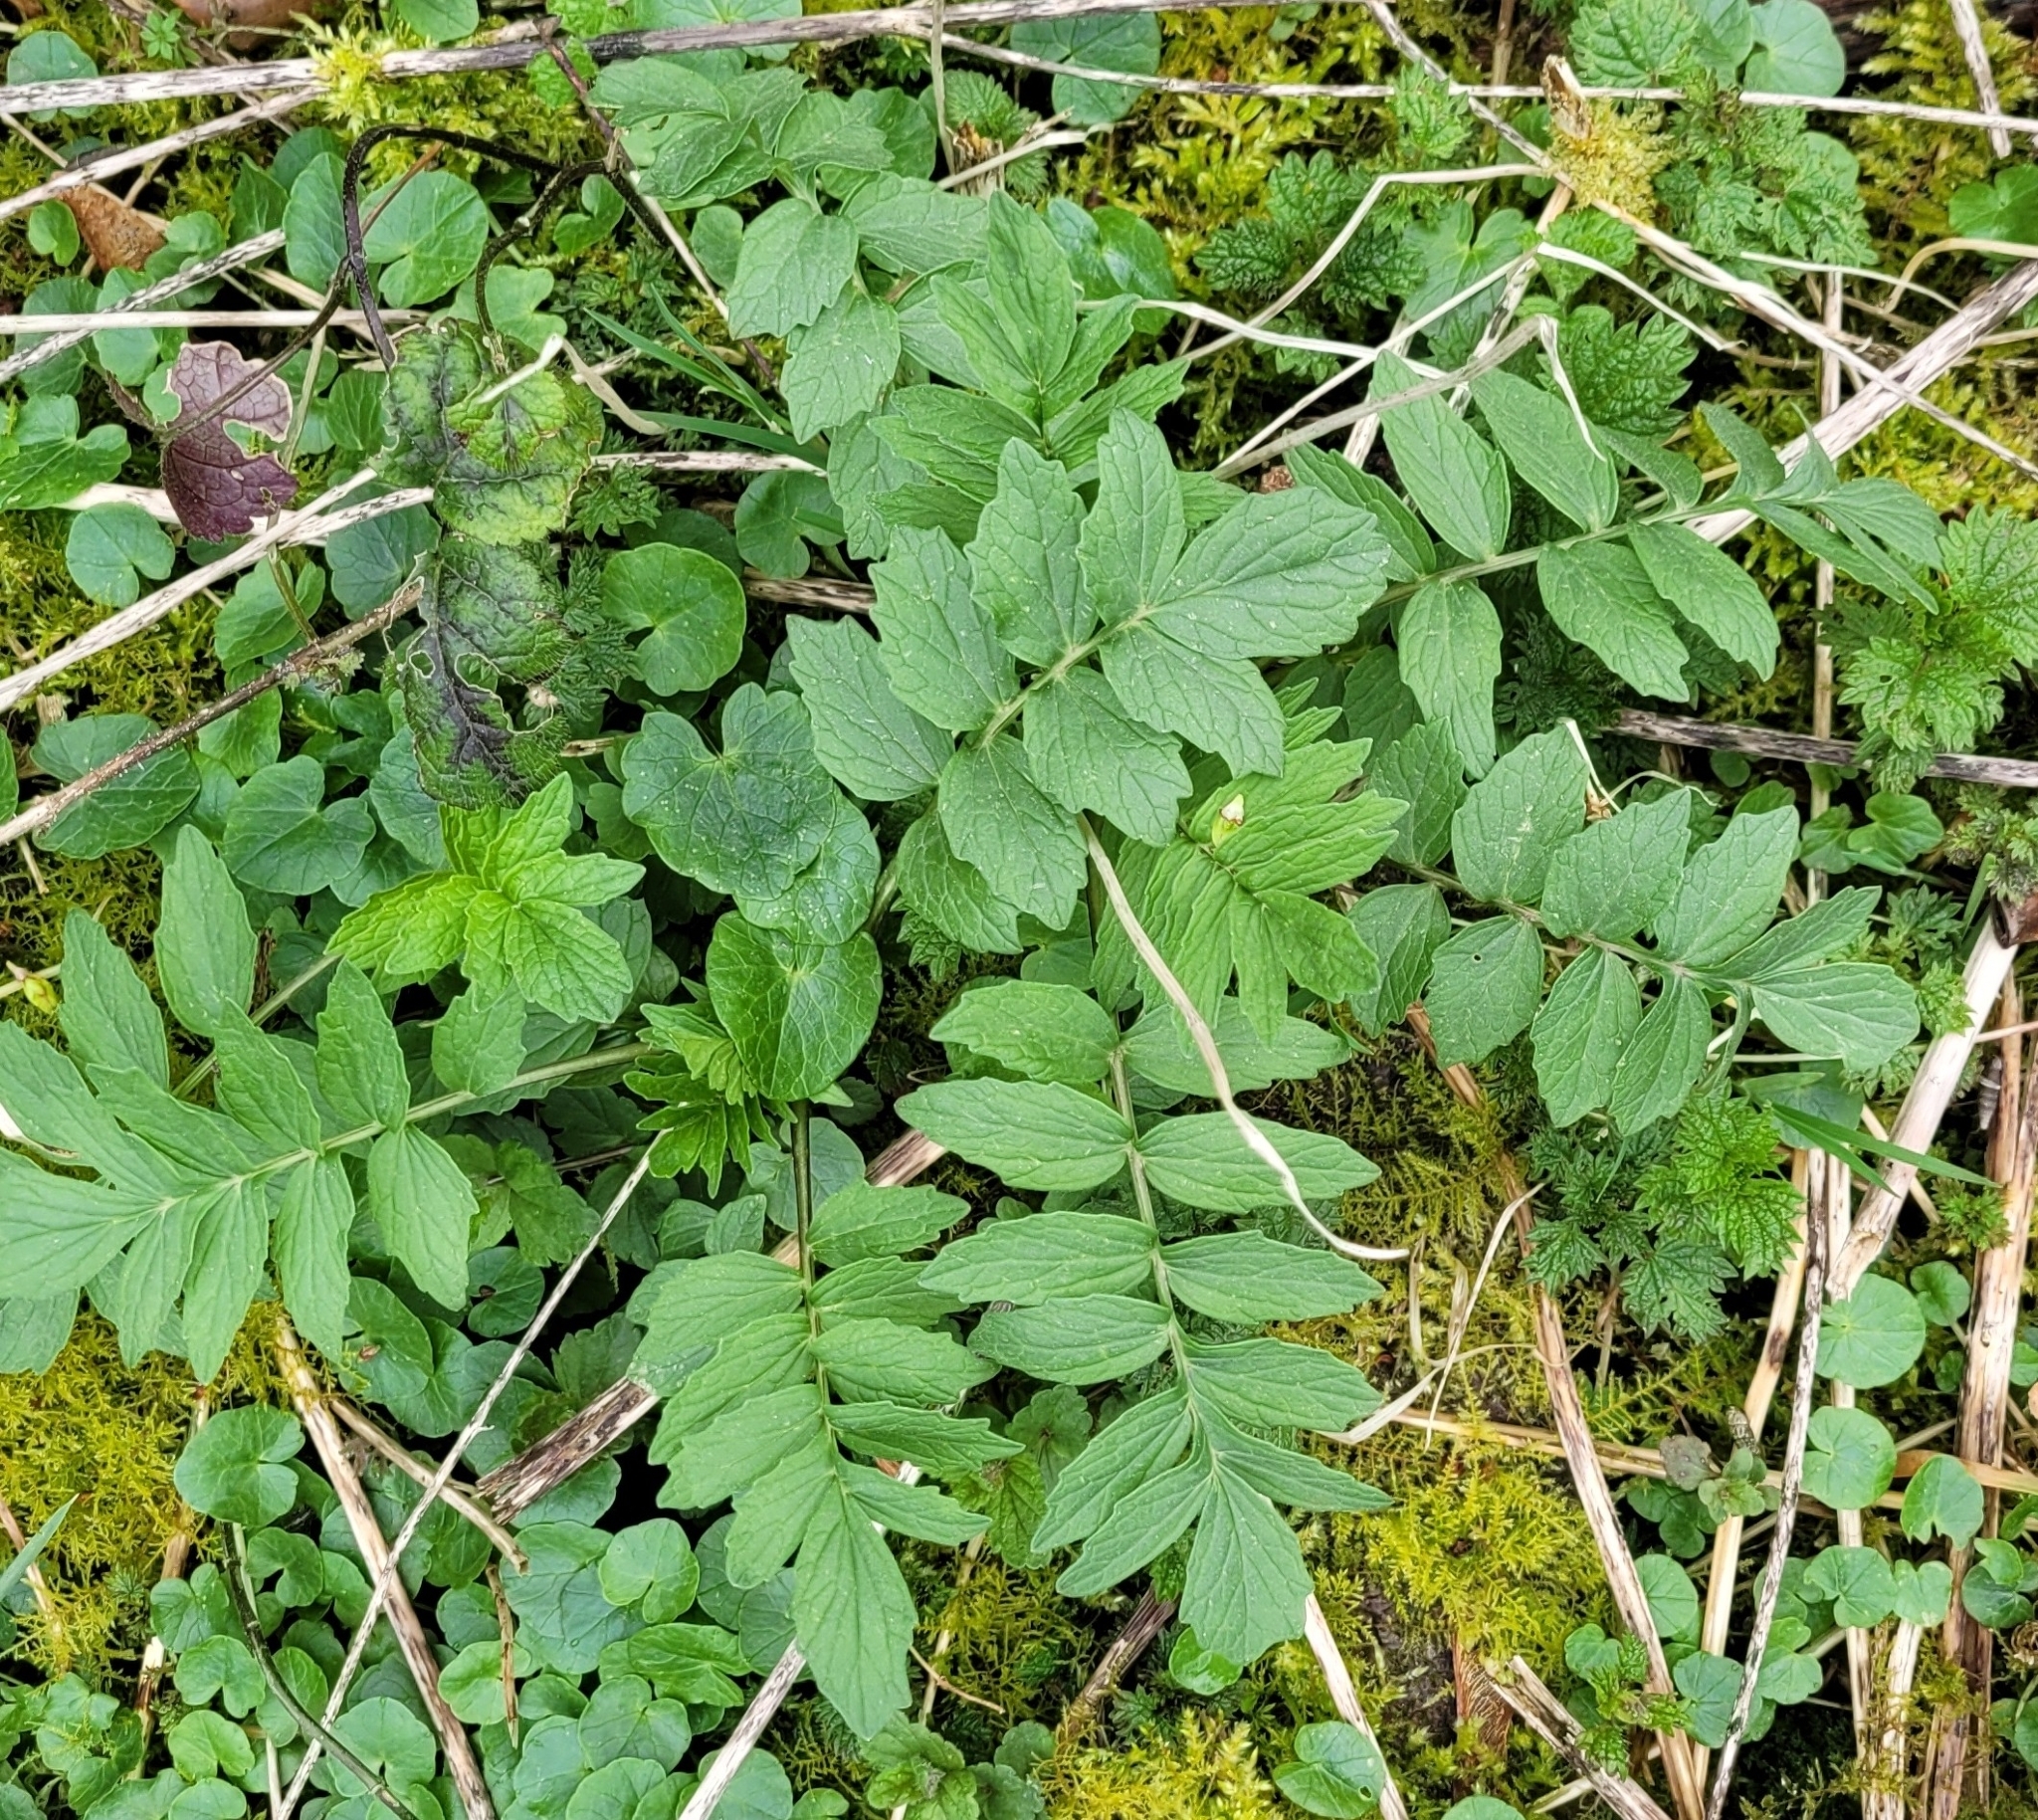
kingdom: Plantae
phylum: Tracheophyta
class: Magnoliopsida
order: Dipsacales
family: Caprifoliaceae
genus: Valeriana
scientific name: Valeriana officinalis
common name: Common valerian
